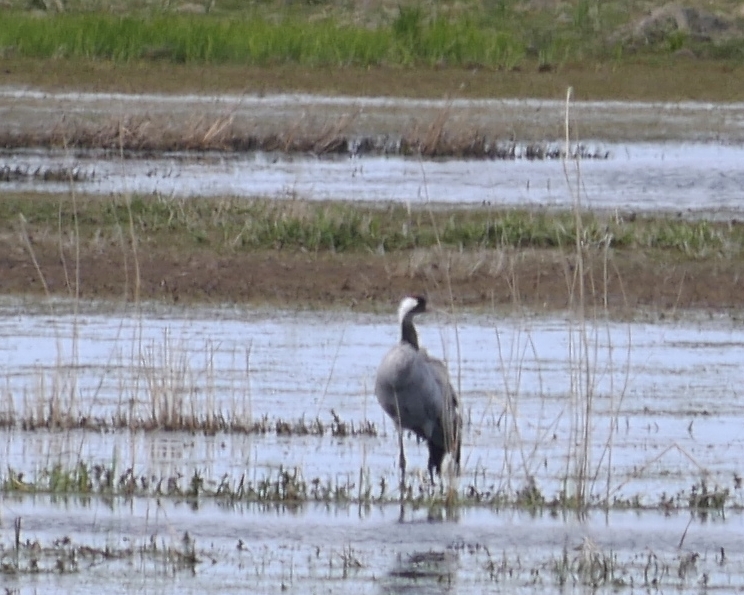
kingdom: Animalia
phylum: Chordata
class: Aves
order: Gruiformes
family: Gruidae
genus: Grus
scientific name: Grus grus
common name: Common crane
